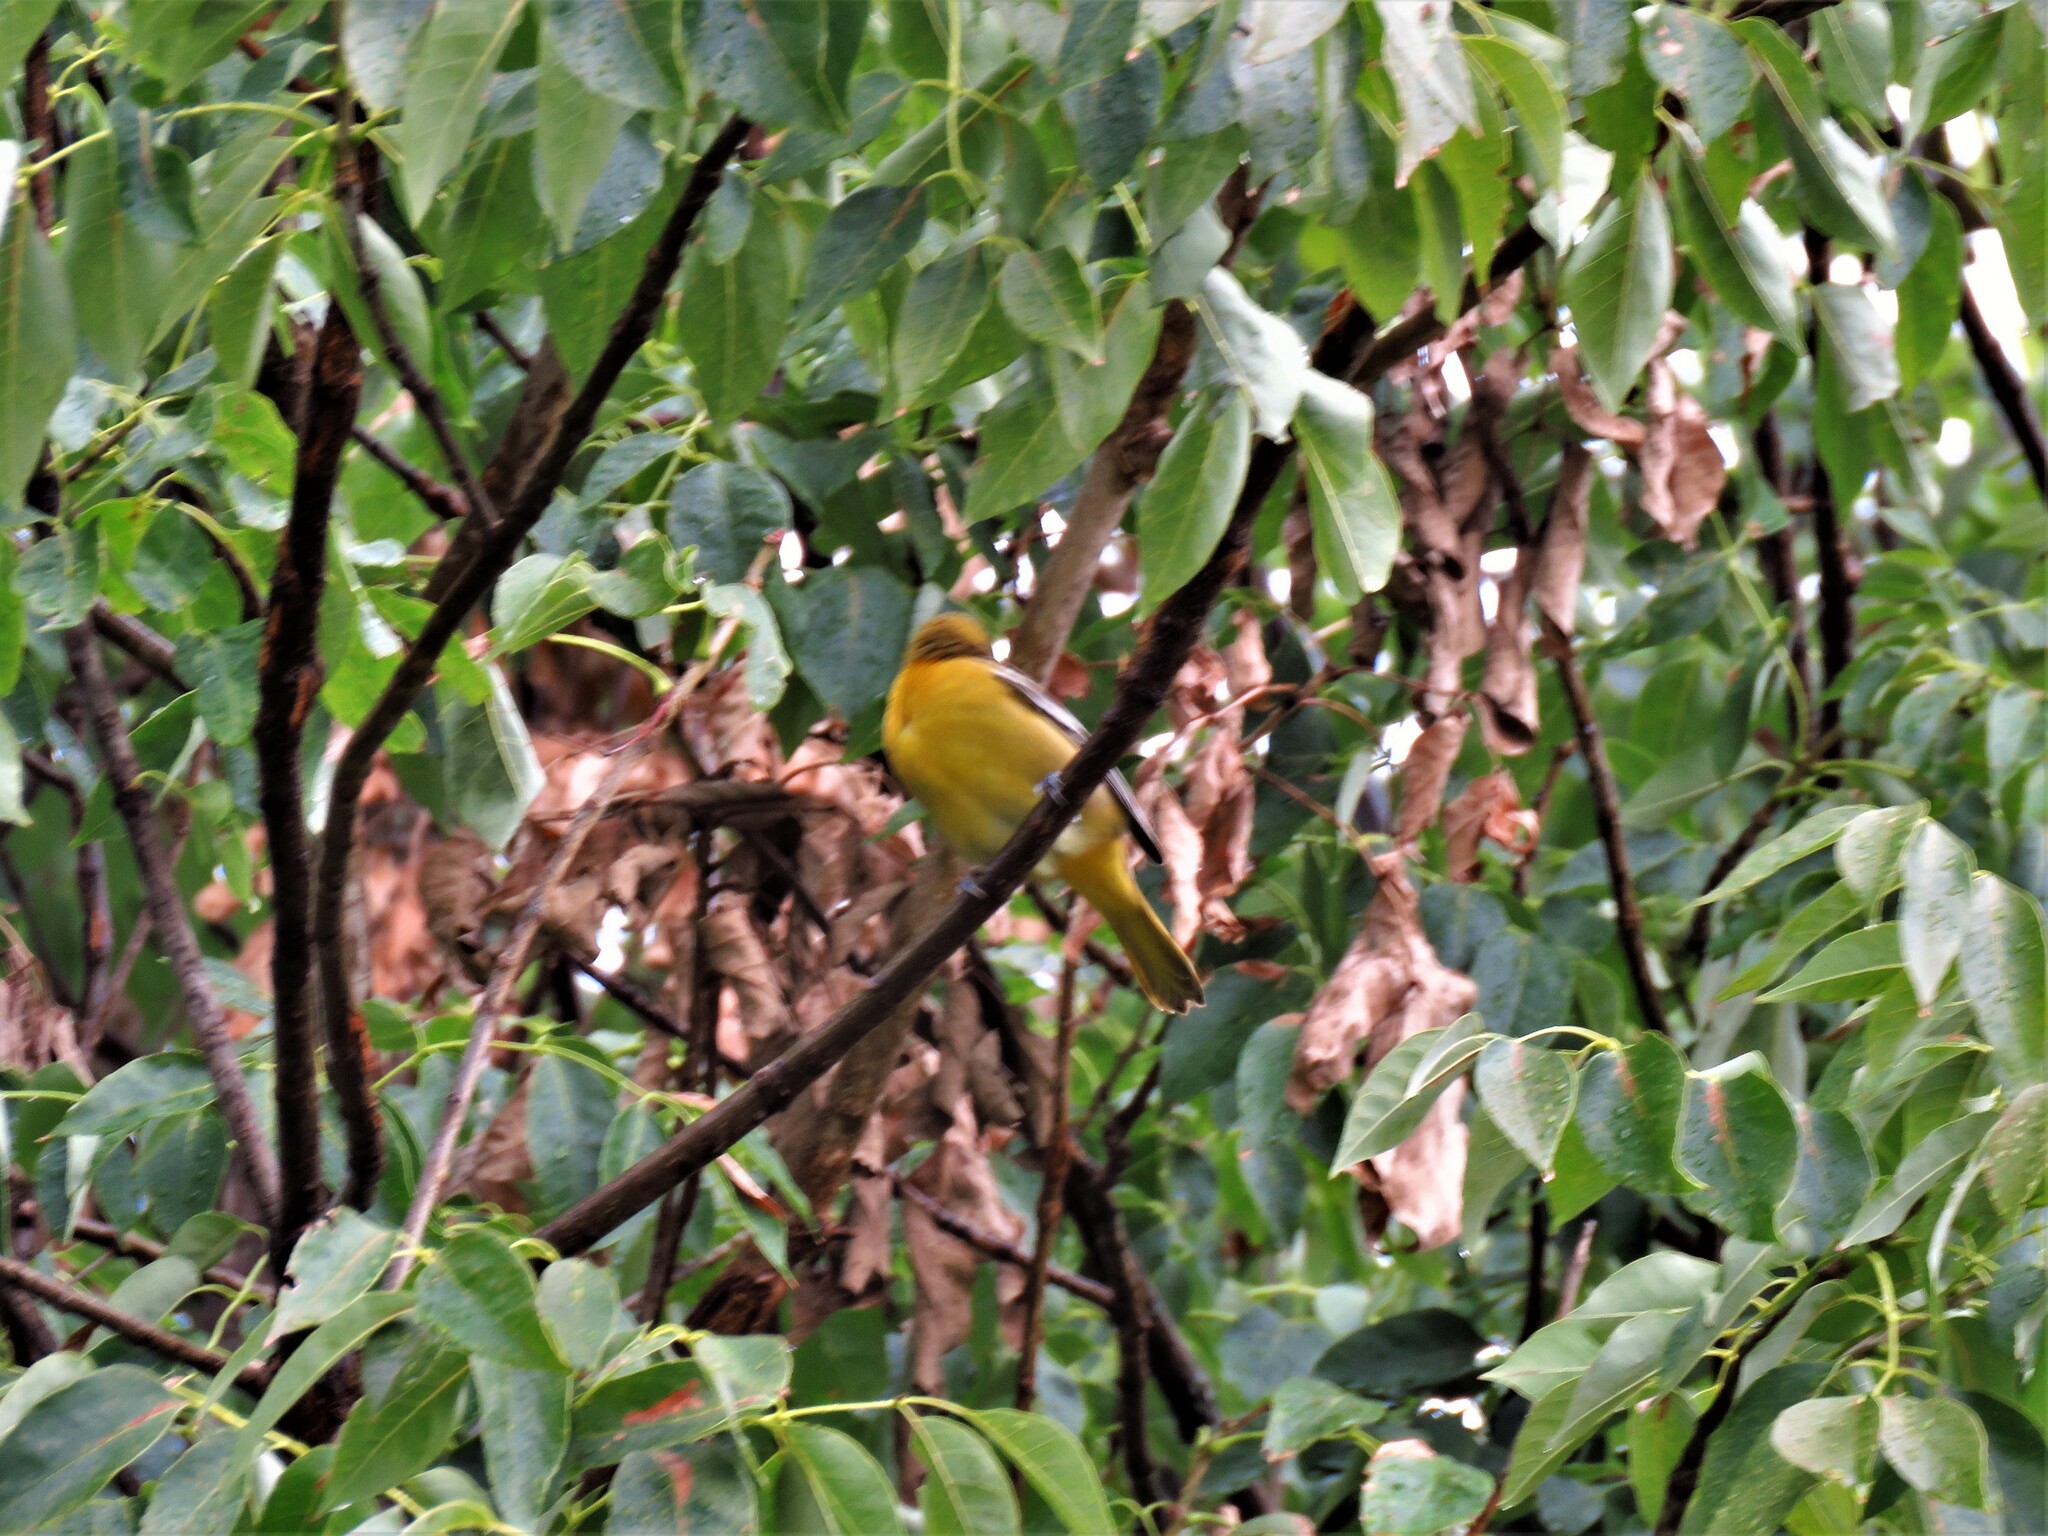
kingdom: Animalia
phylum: Chordata
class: Aves
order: Passeriformes
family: Icteridae
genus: Icterus
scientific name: Icterus galbula
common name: Baltimore oriole
